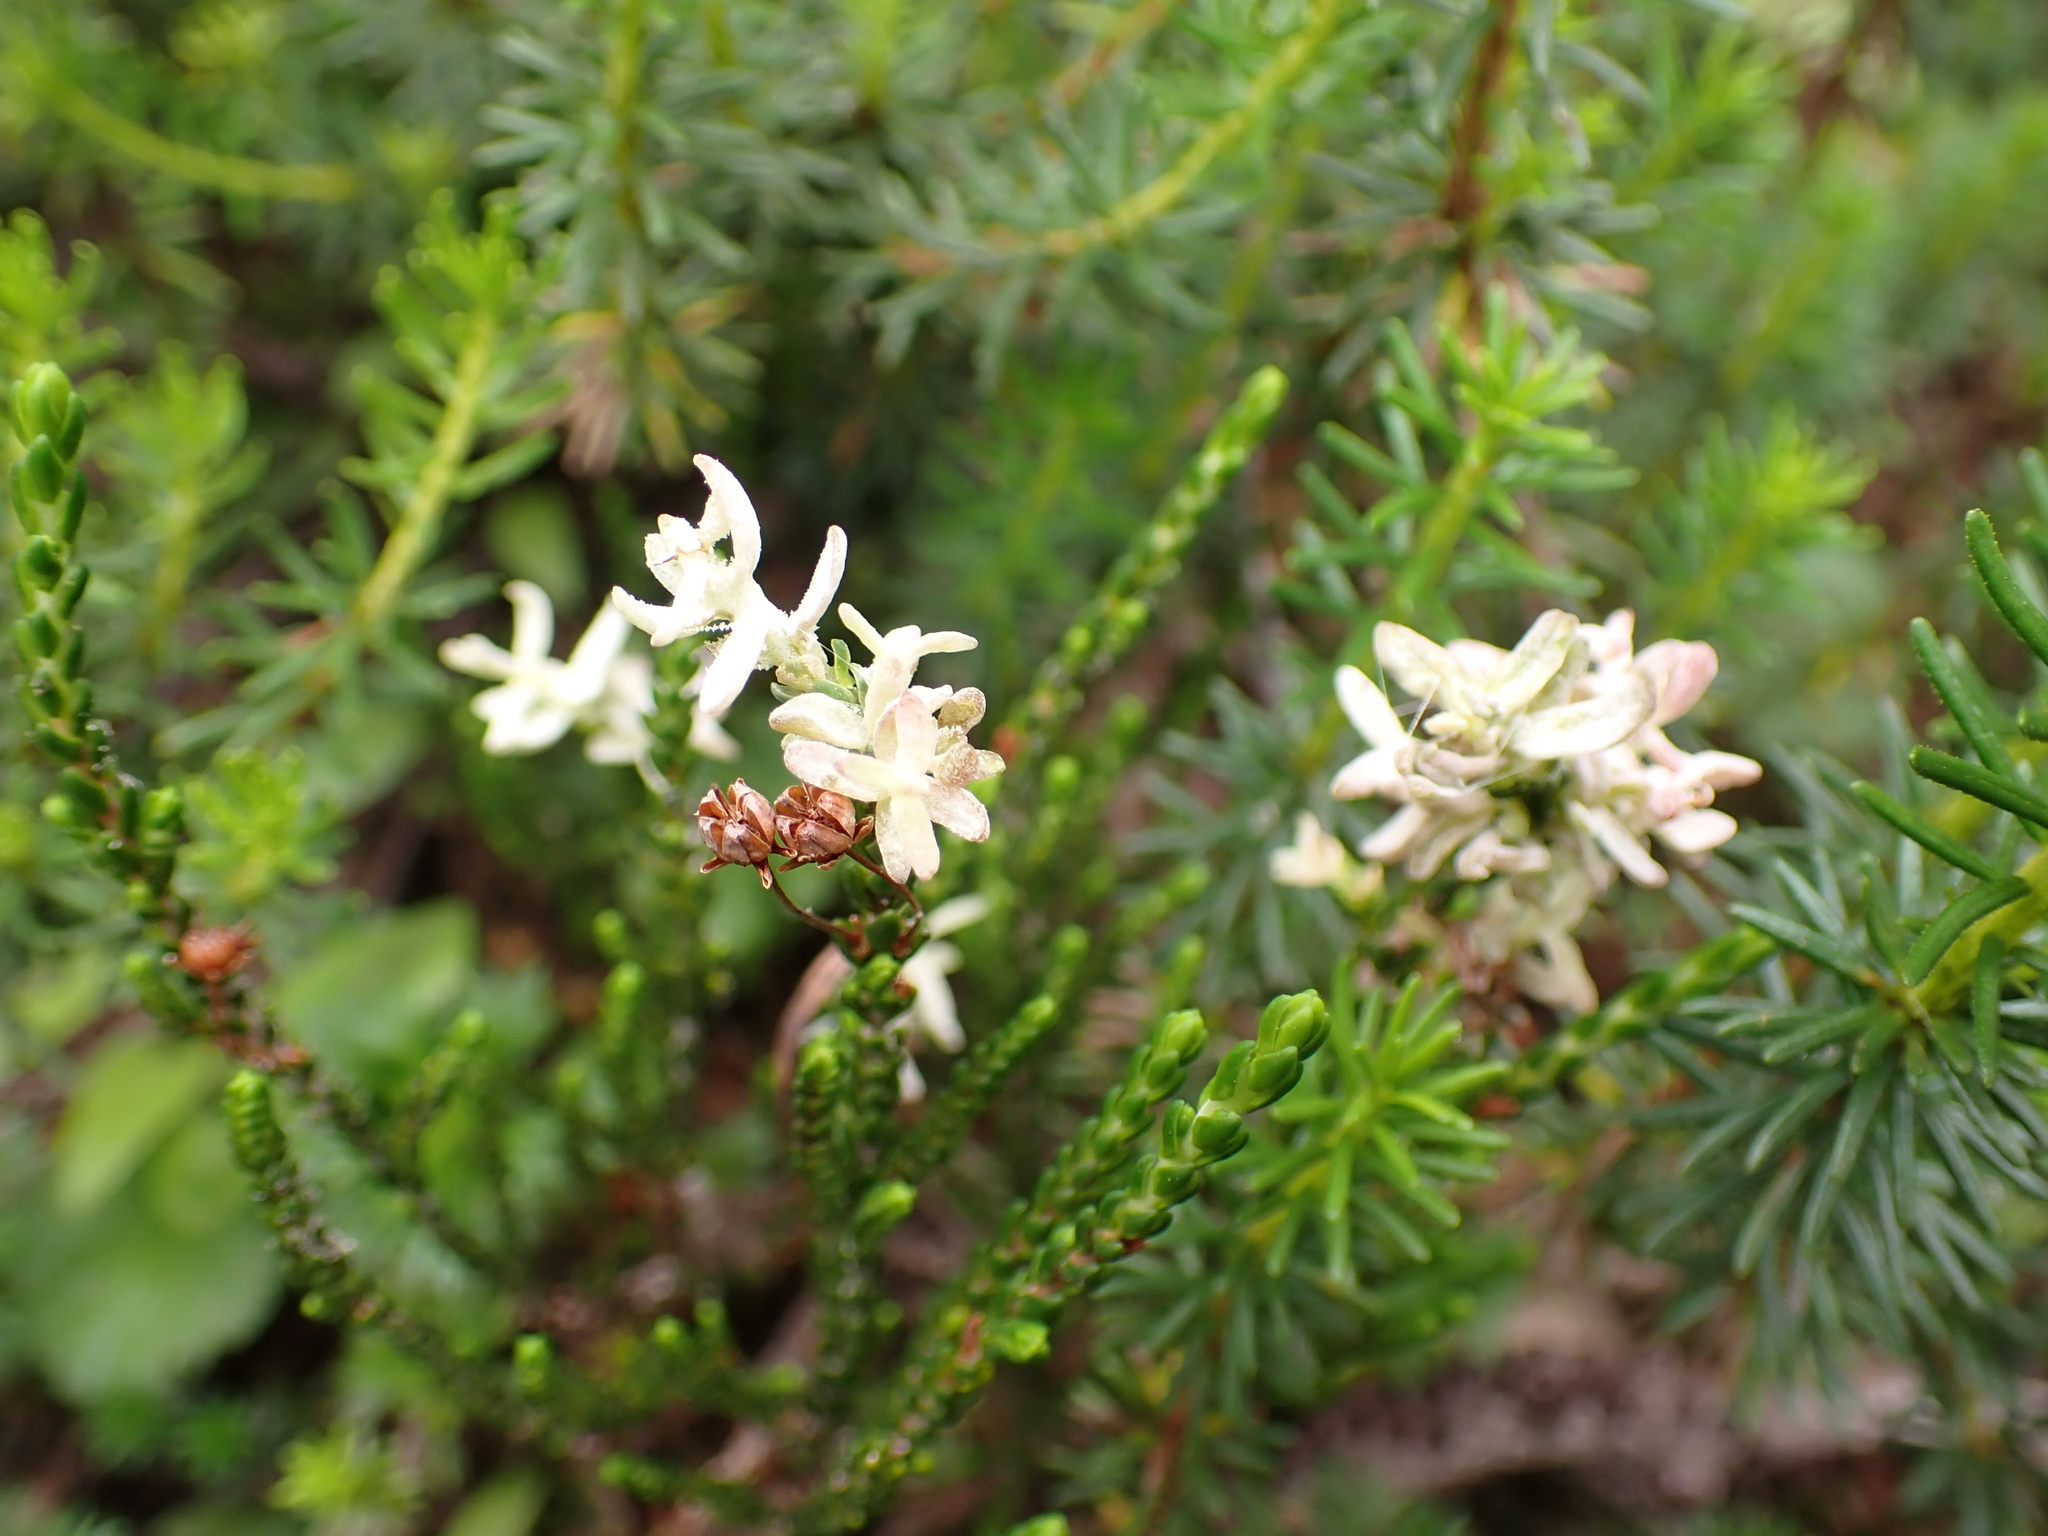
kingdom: Fungi
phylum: Basidiomycota
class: Exobasidiomycetes
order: Exobasidiales
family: Exobasidiaceae
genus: Exobasidium
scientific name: Exobasidium cassiopes
